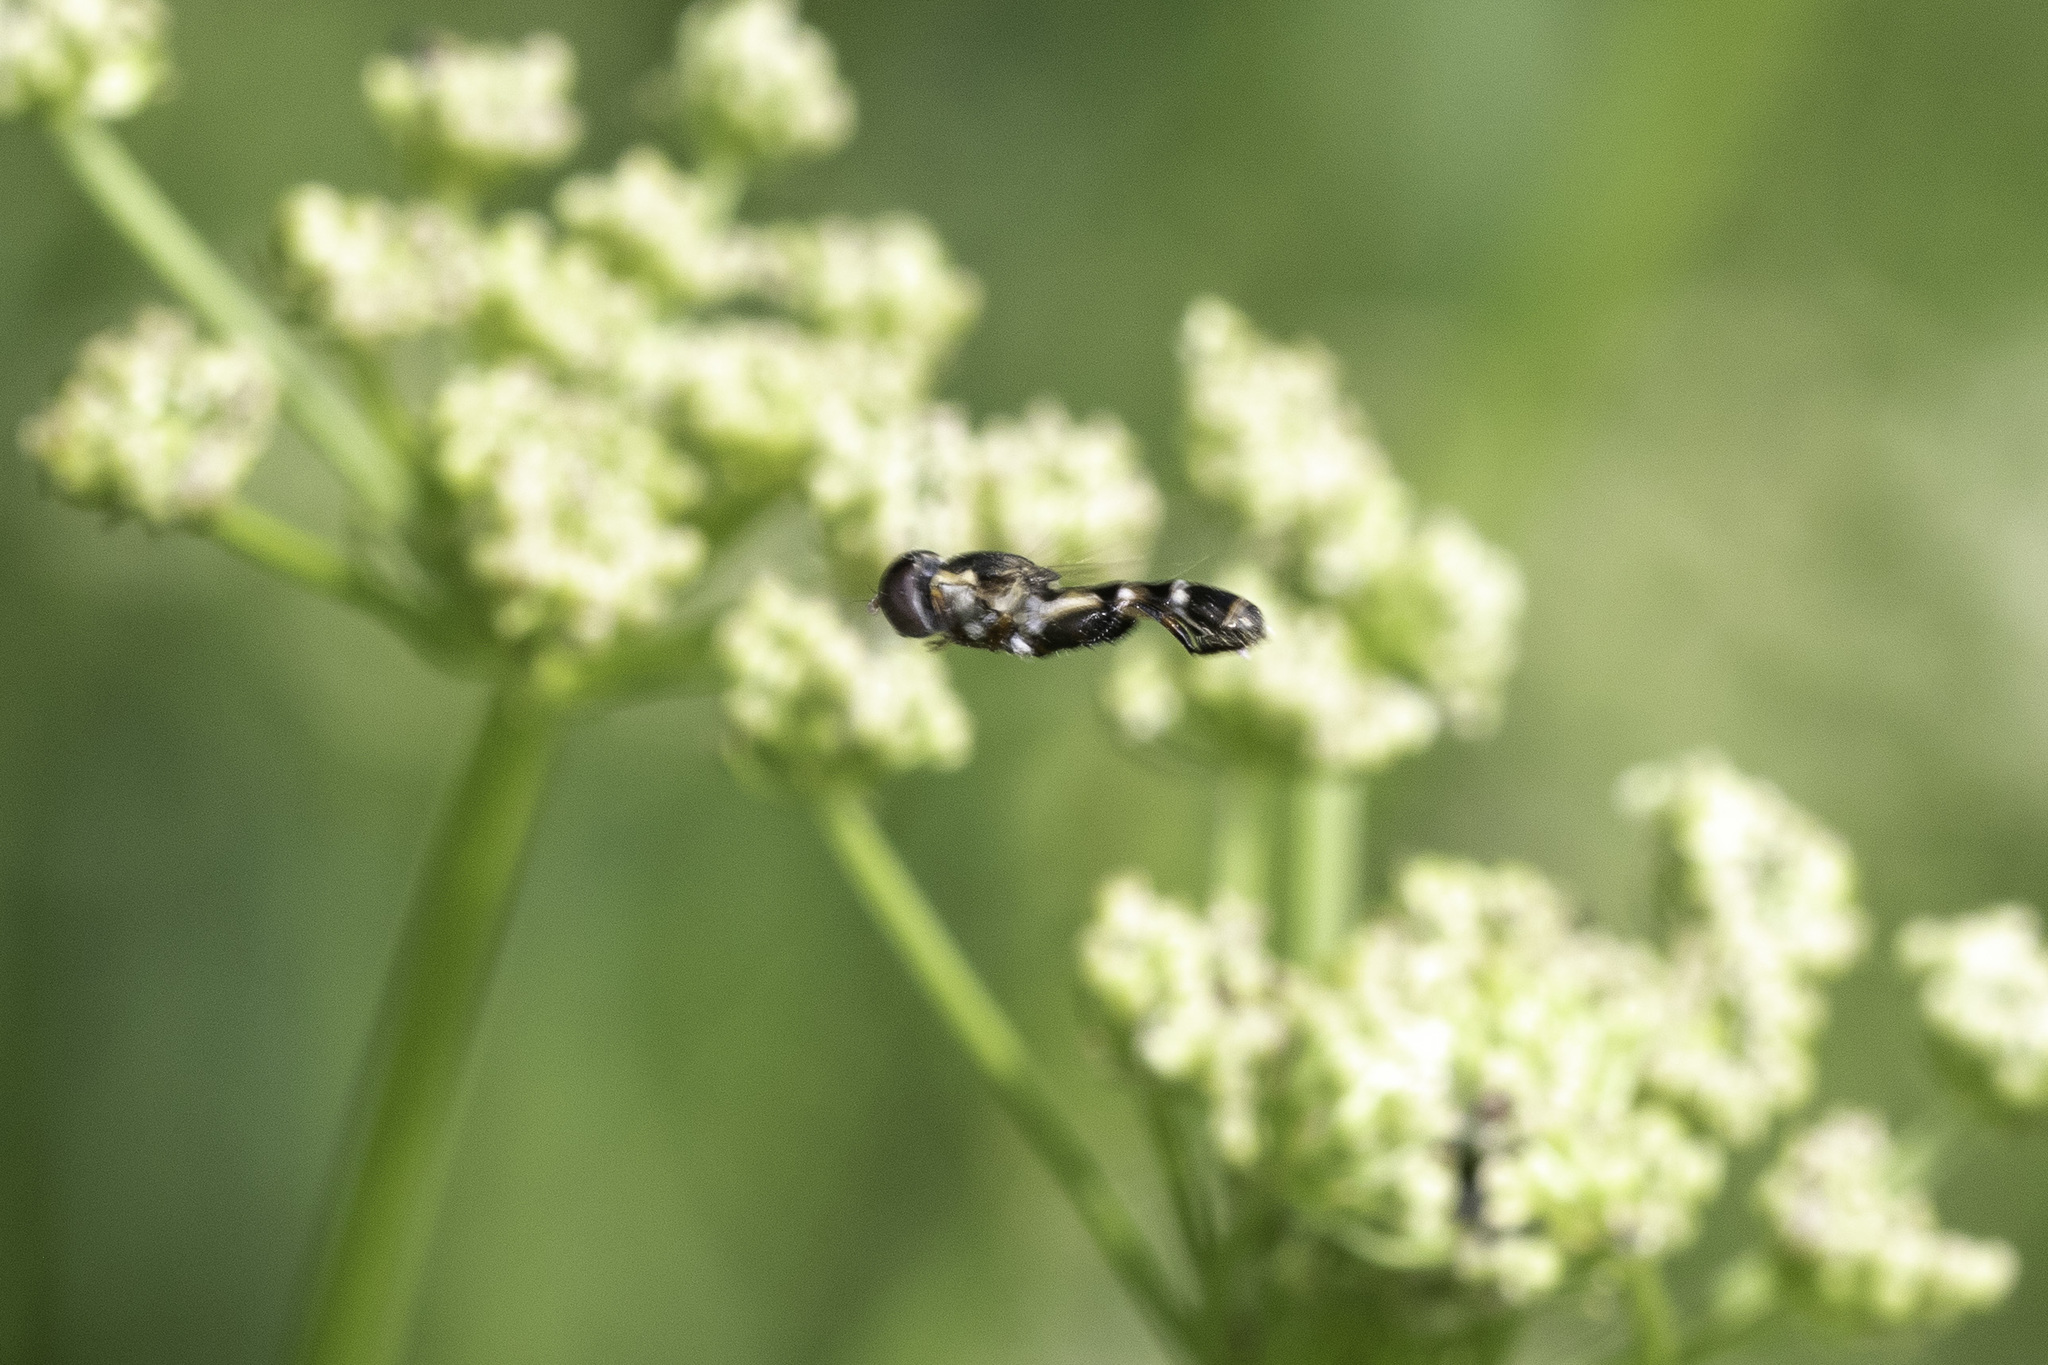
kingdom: Animalia
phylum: Arthropoda
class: Insecta
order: Diptera
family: Syrphidae
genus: Syritta
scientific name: Syritta pipiens
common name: Hover fly
